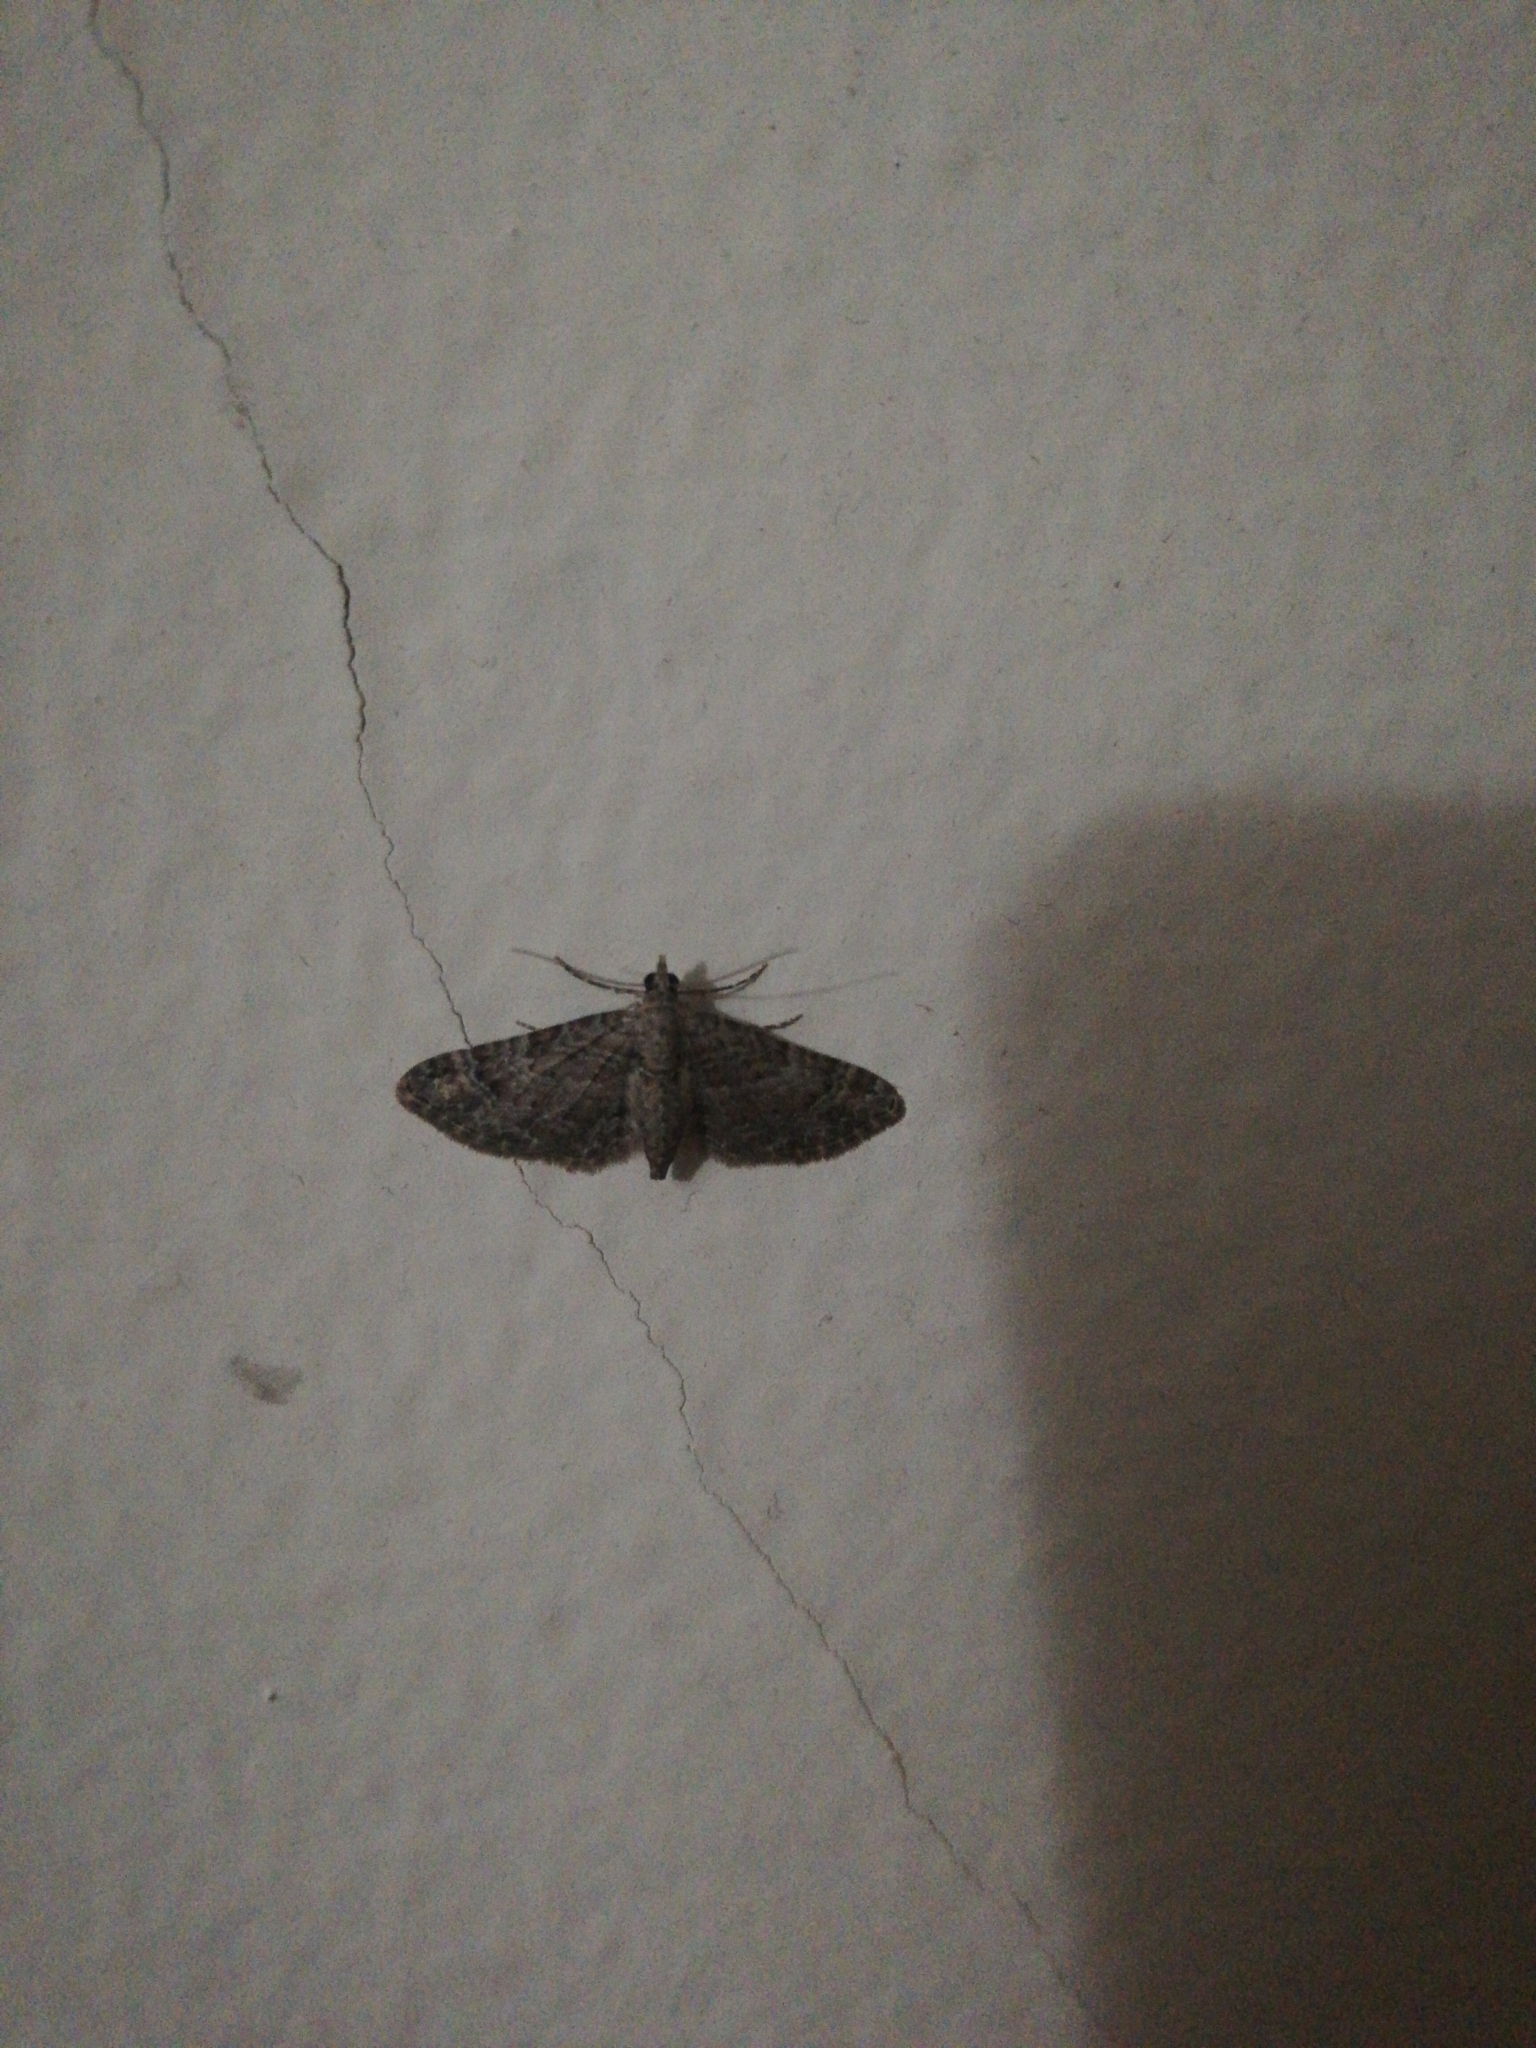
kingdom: Animalia
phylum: Arthropoda
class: Insecta
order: Lepidoptera
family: Geometridae
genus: Gymnoscelis
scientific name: Gymnoscelis rufifasciata
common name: Double-striped pug
